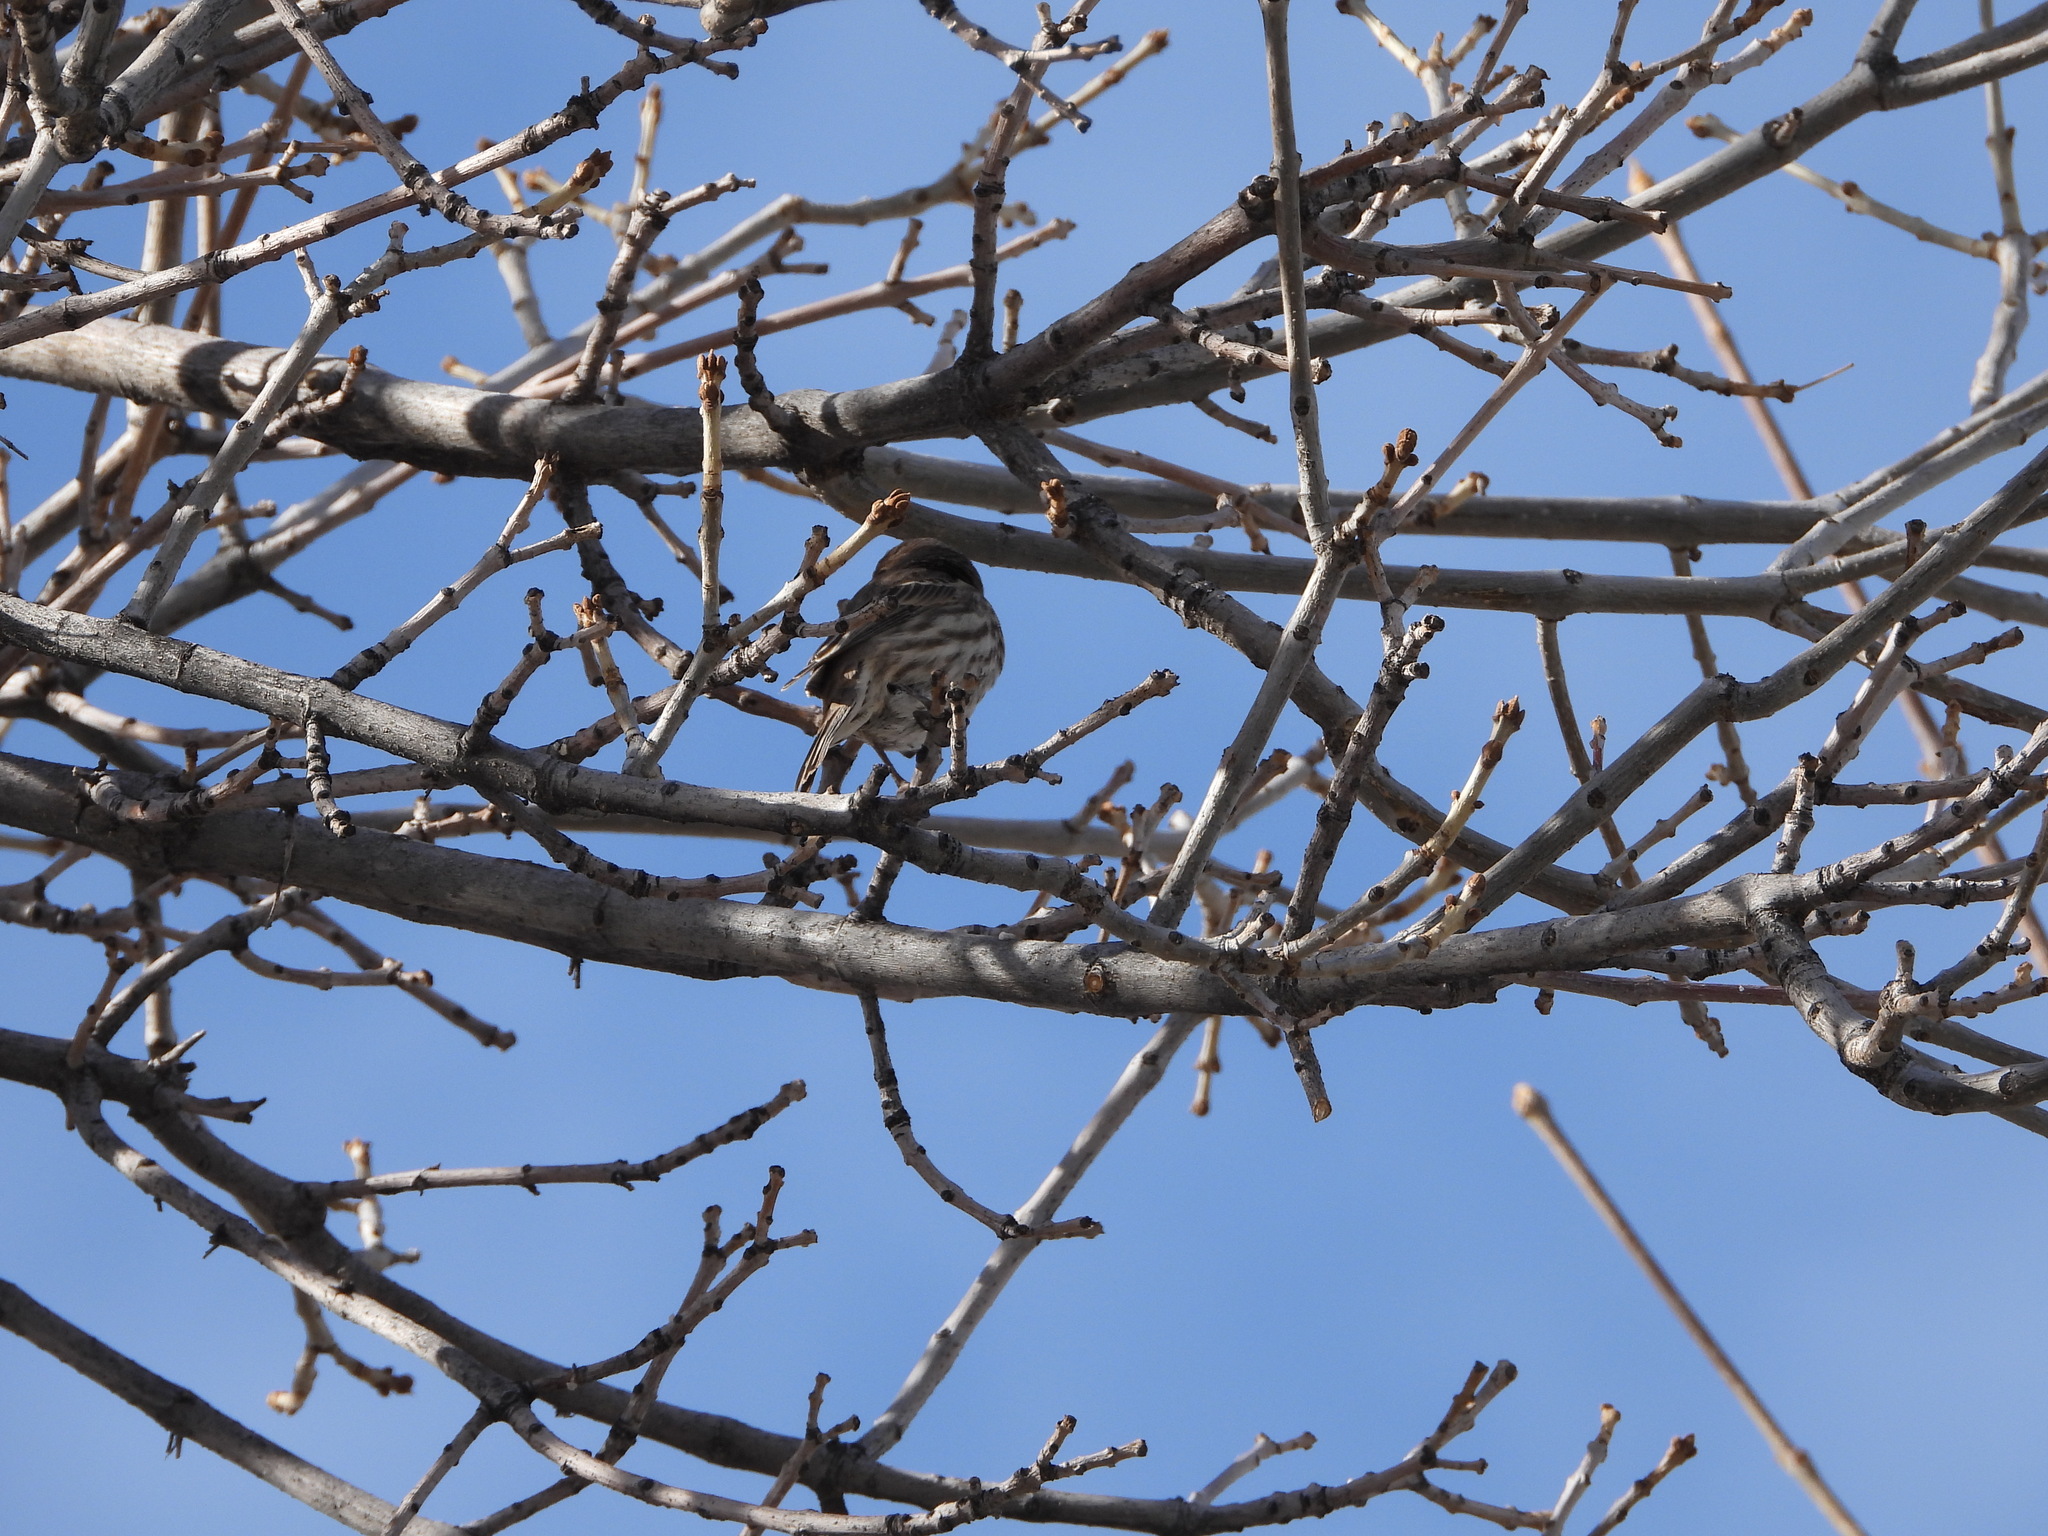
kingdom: Animalia
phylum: Chordata
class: Aves
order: Passeriformes
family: Fringillidae
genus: Haemorhous
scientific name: Haemorhous mexicanus
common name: House finch
